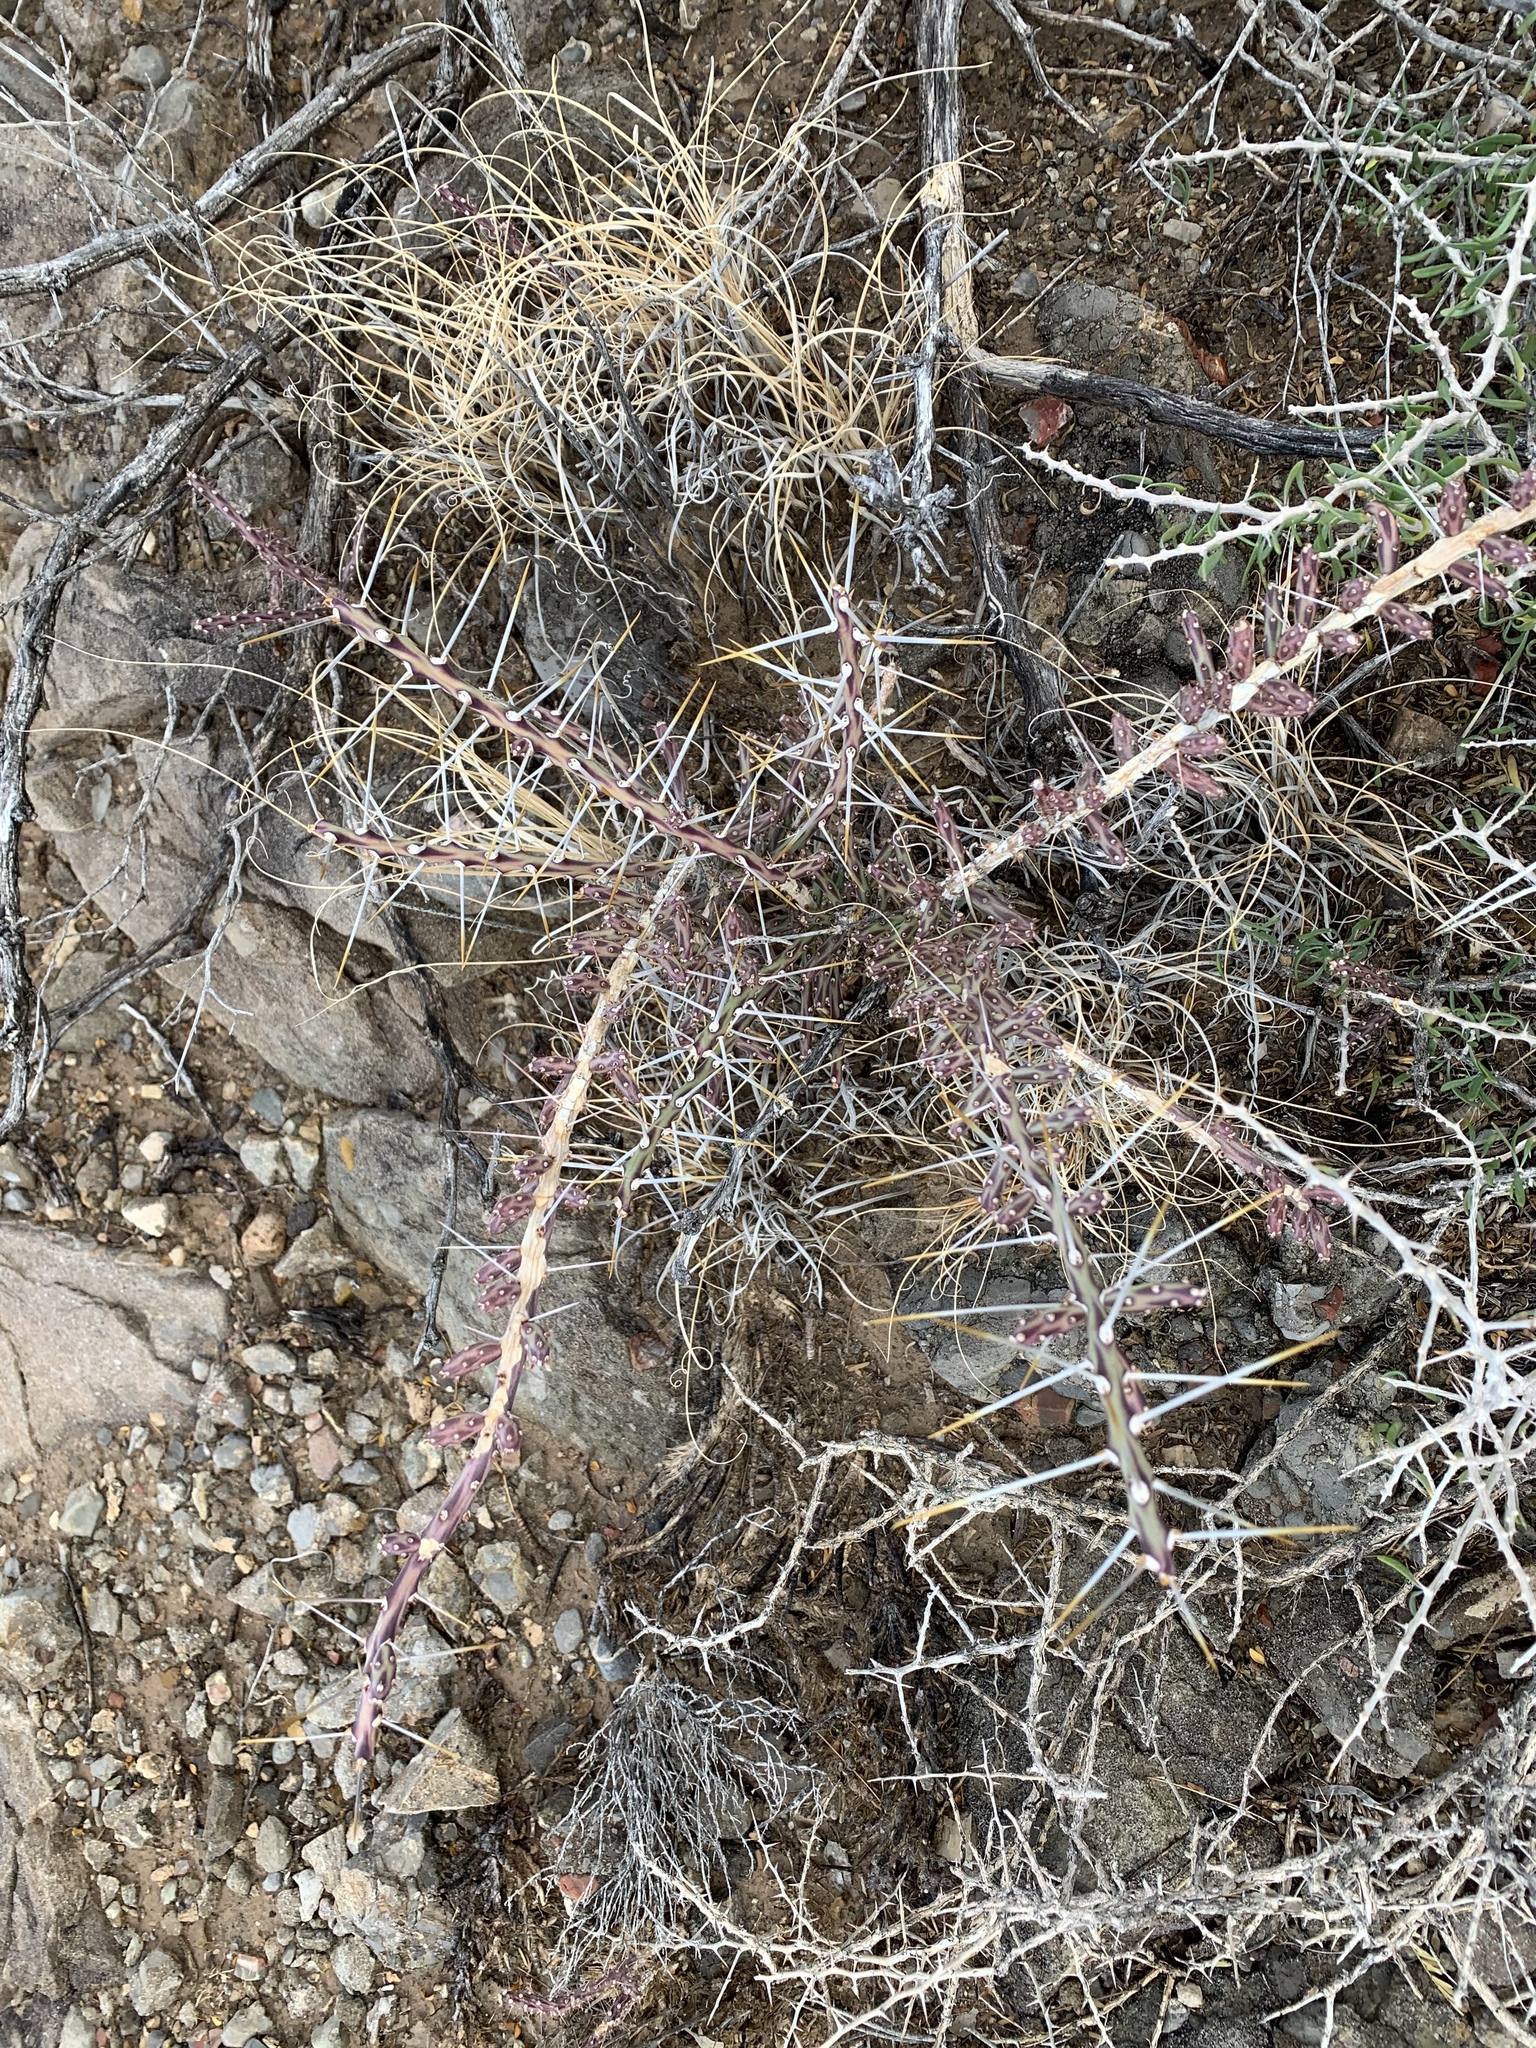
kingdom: Plantae
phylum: Tracheophyta
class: Magnoliopsida
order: Caryophyllales
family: Cactaceae
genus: Cylindropuntia
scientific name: Cylindropuntia leptocaulis
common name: Christmas cactus
